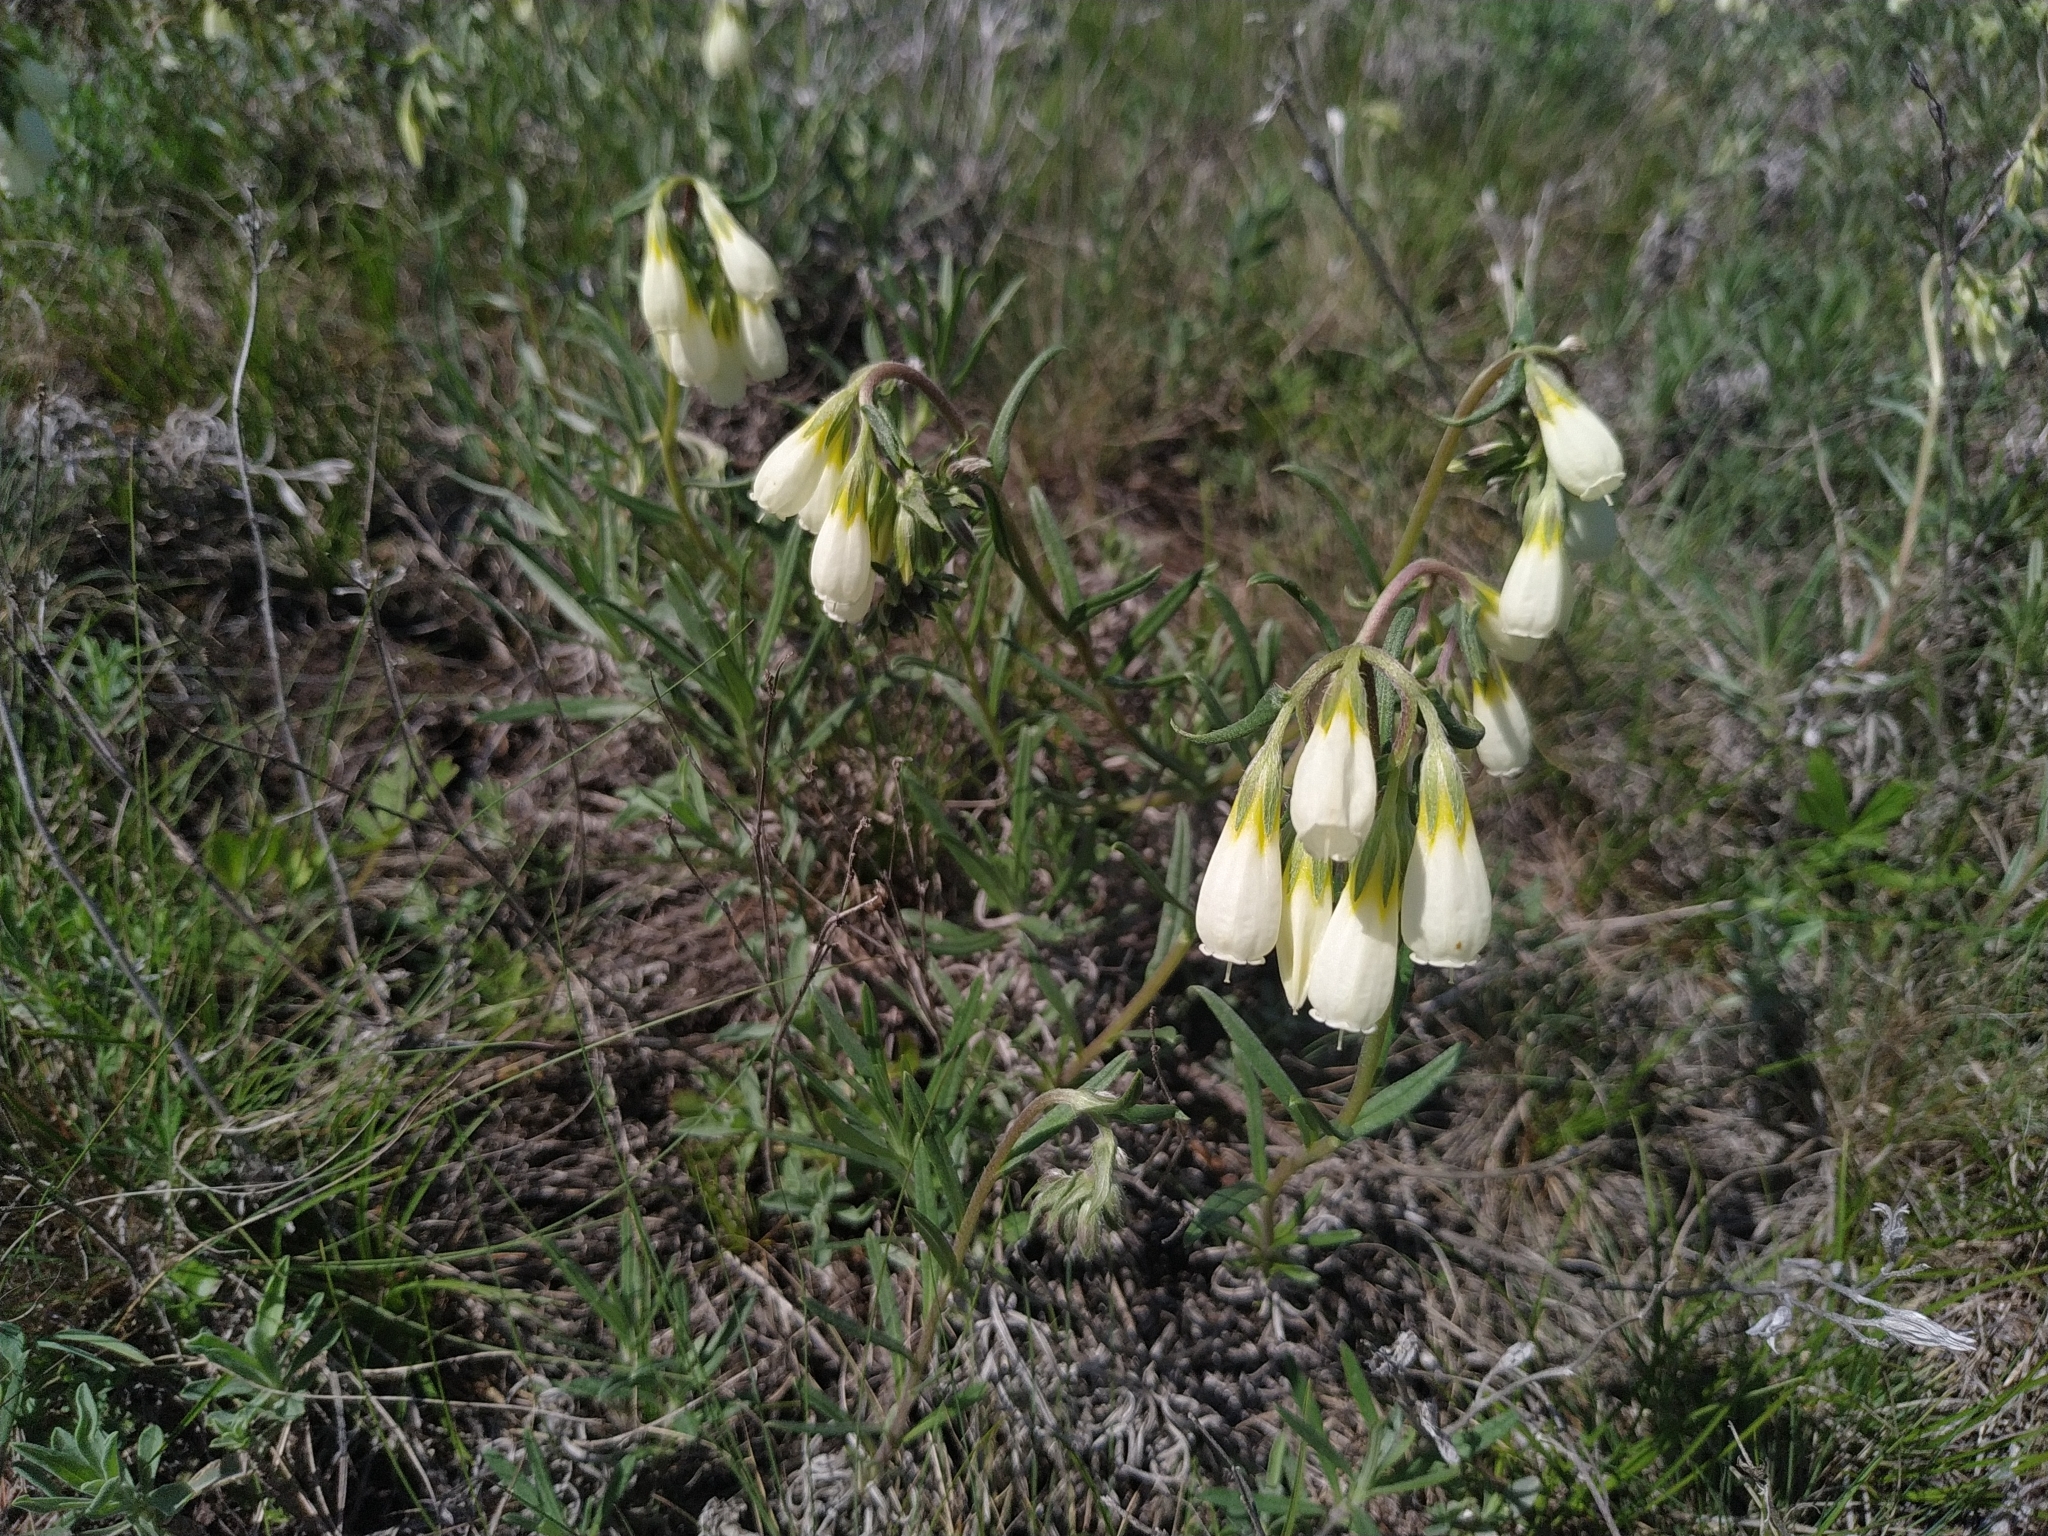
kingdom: Plantae
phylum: Tracheophyta
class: Magnoliopsida
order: Boraginales
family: Boraginaceae
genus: Onosma
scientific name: Onosma simplicissima
